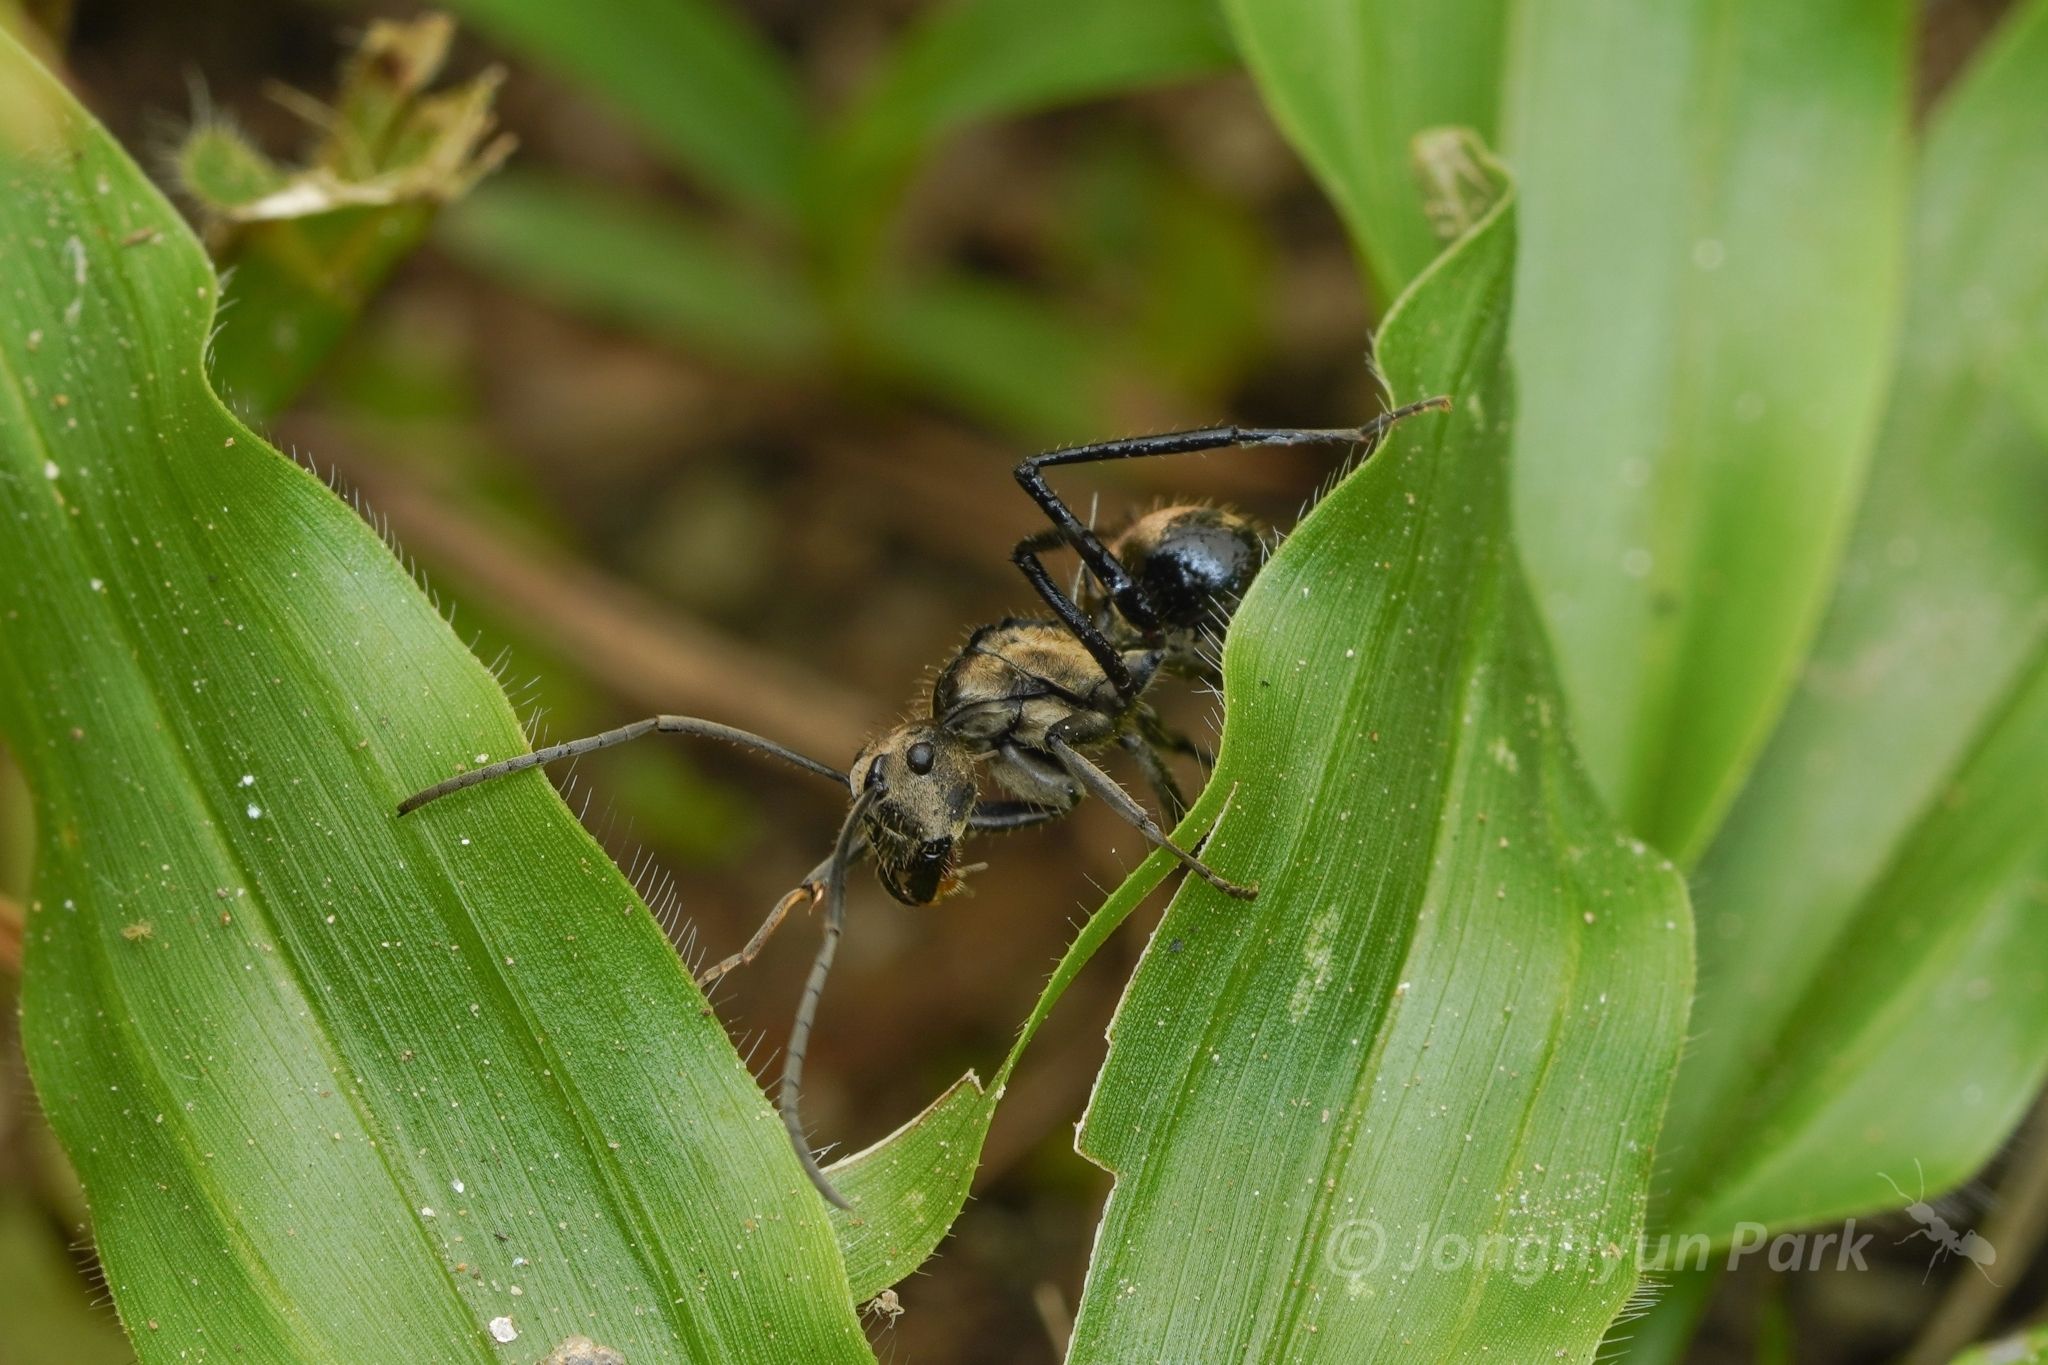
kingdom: Animalia
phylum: Arthropoda
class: Insecta
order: Hymenoptera
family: Formicidae
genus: Polyrhachis
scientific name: Polyrhachis proxima
